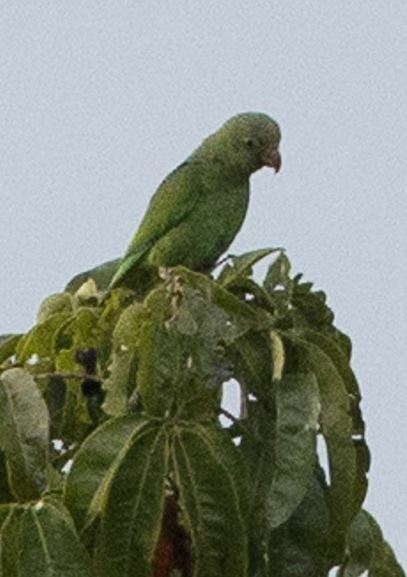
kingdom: Animalia
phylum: Chordata
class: Aves
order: Psittaciformes
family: Psittacidae
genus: Brotogeris
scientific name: Brotogeris cyanoptera
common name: Cobalt-winged parakeet
